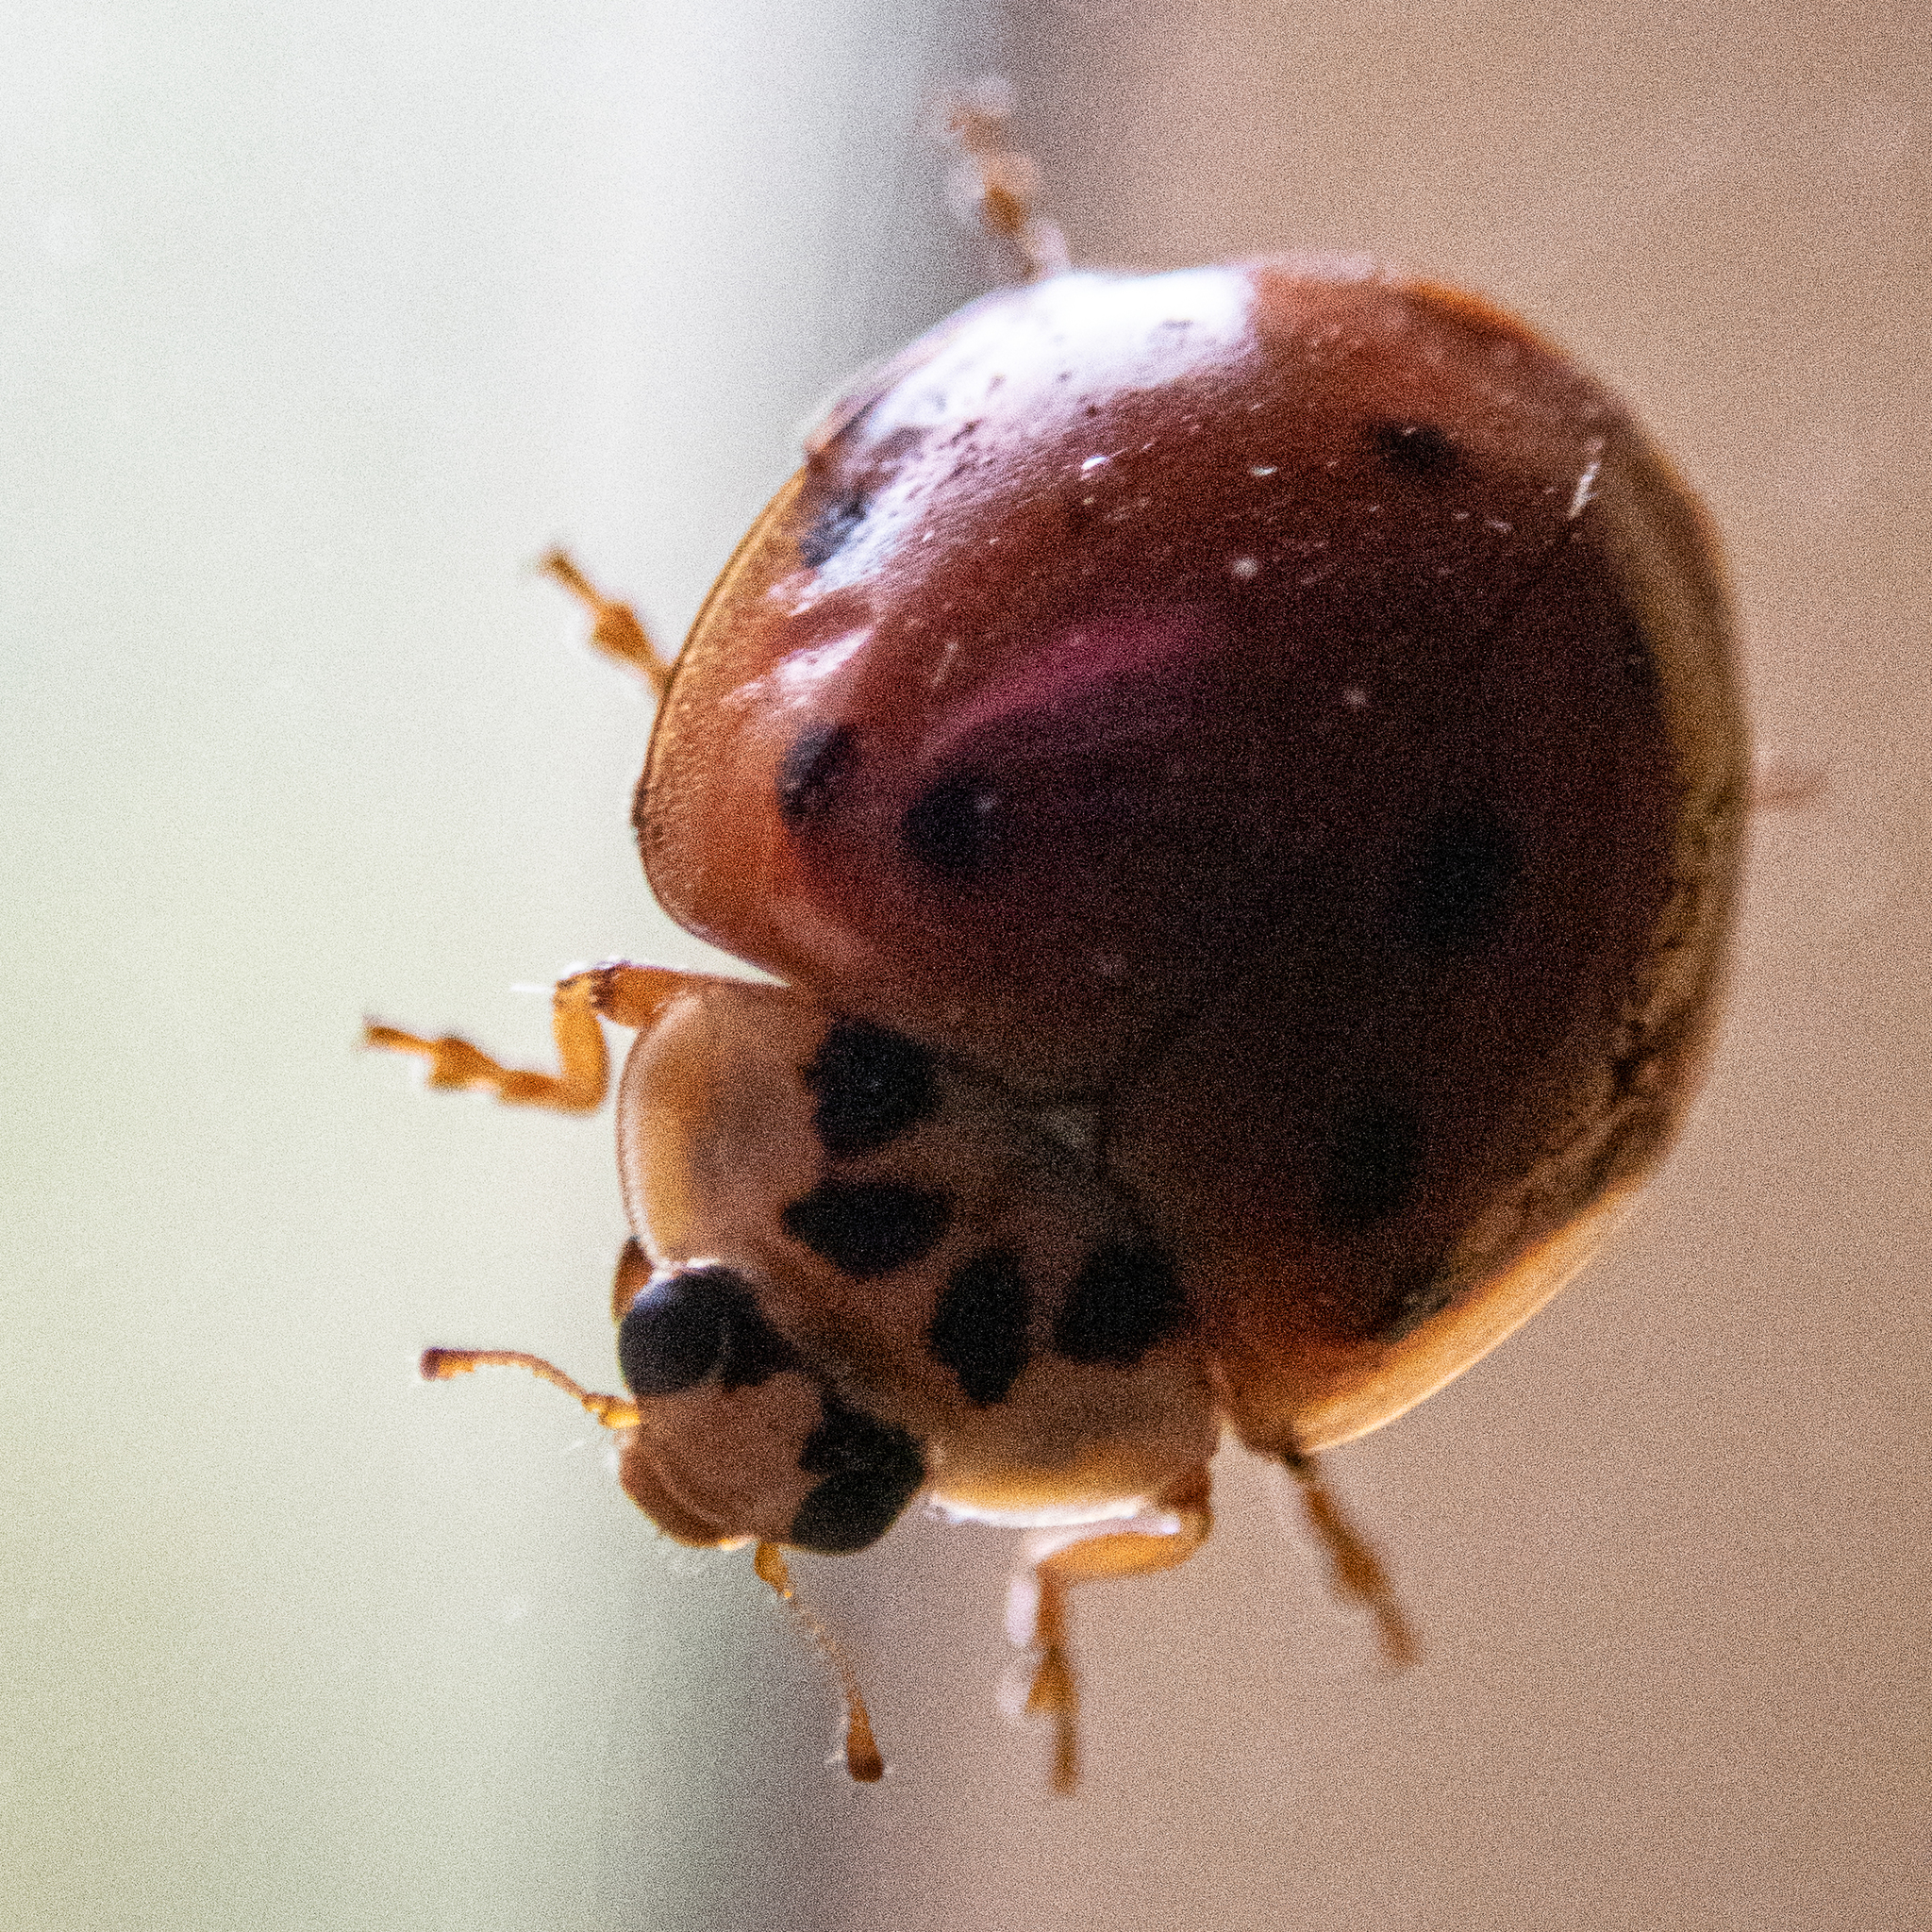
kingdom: Animalia
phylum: Arthropoda
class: Insecta
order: Coleoptera
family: Coccinellidae
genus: Harmonia
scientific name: Harmonia axyridis
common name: Harlequin ladybird
